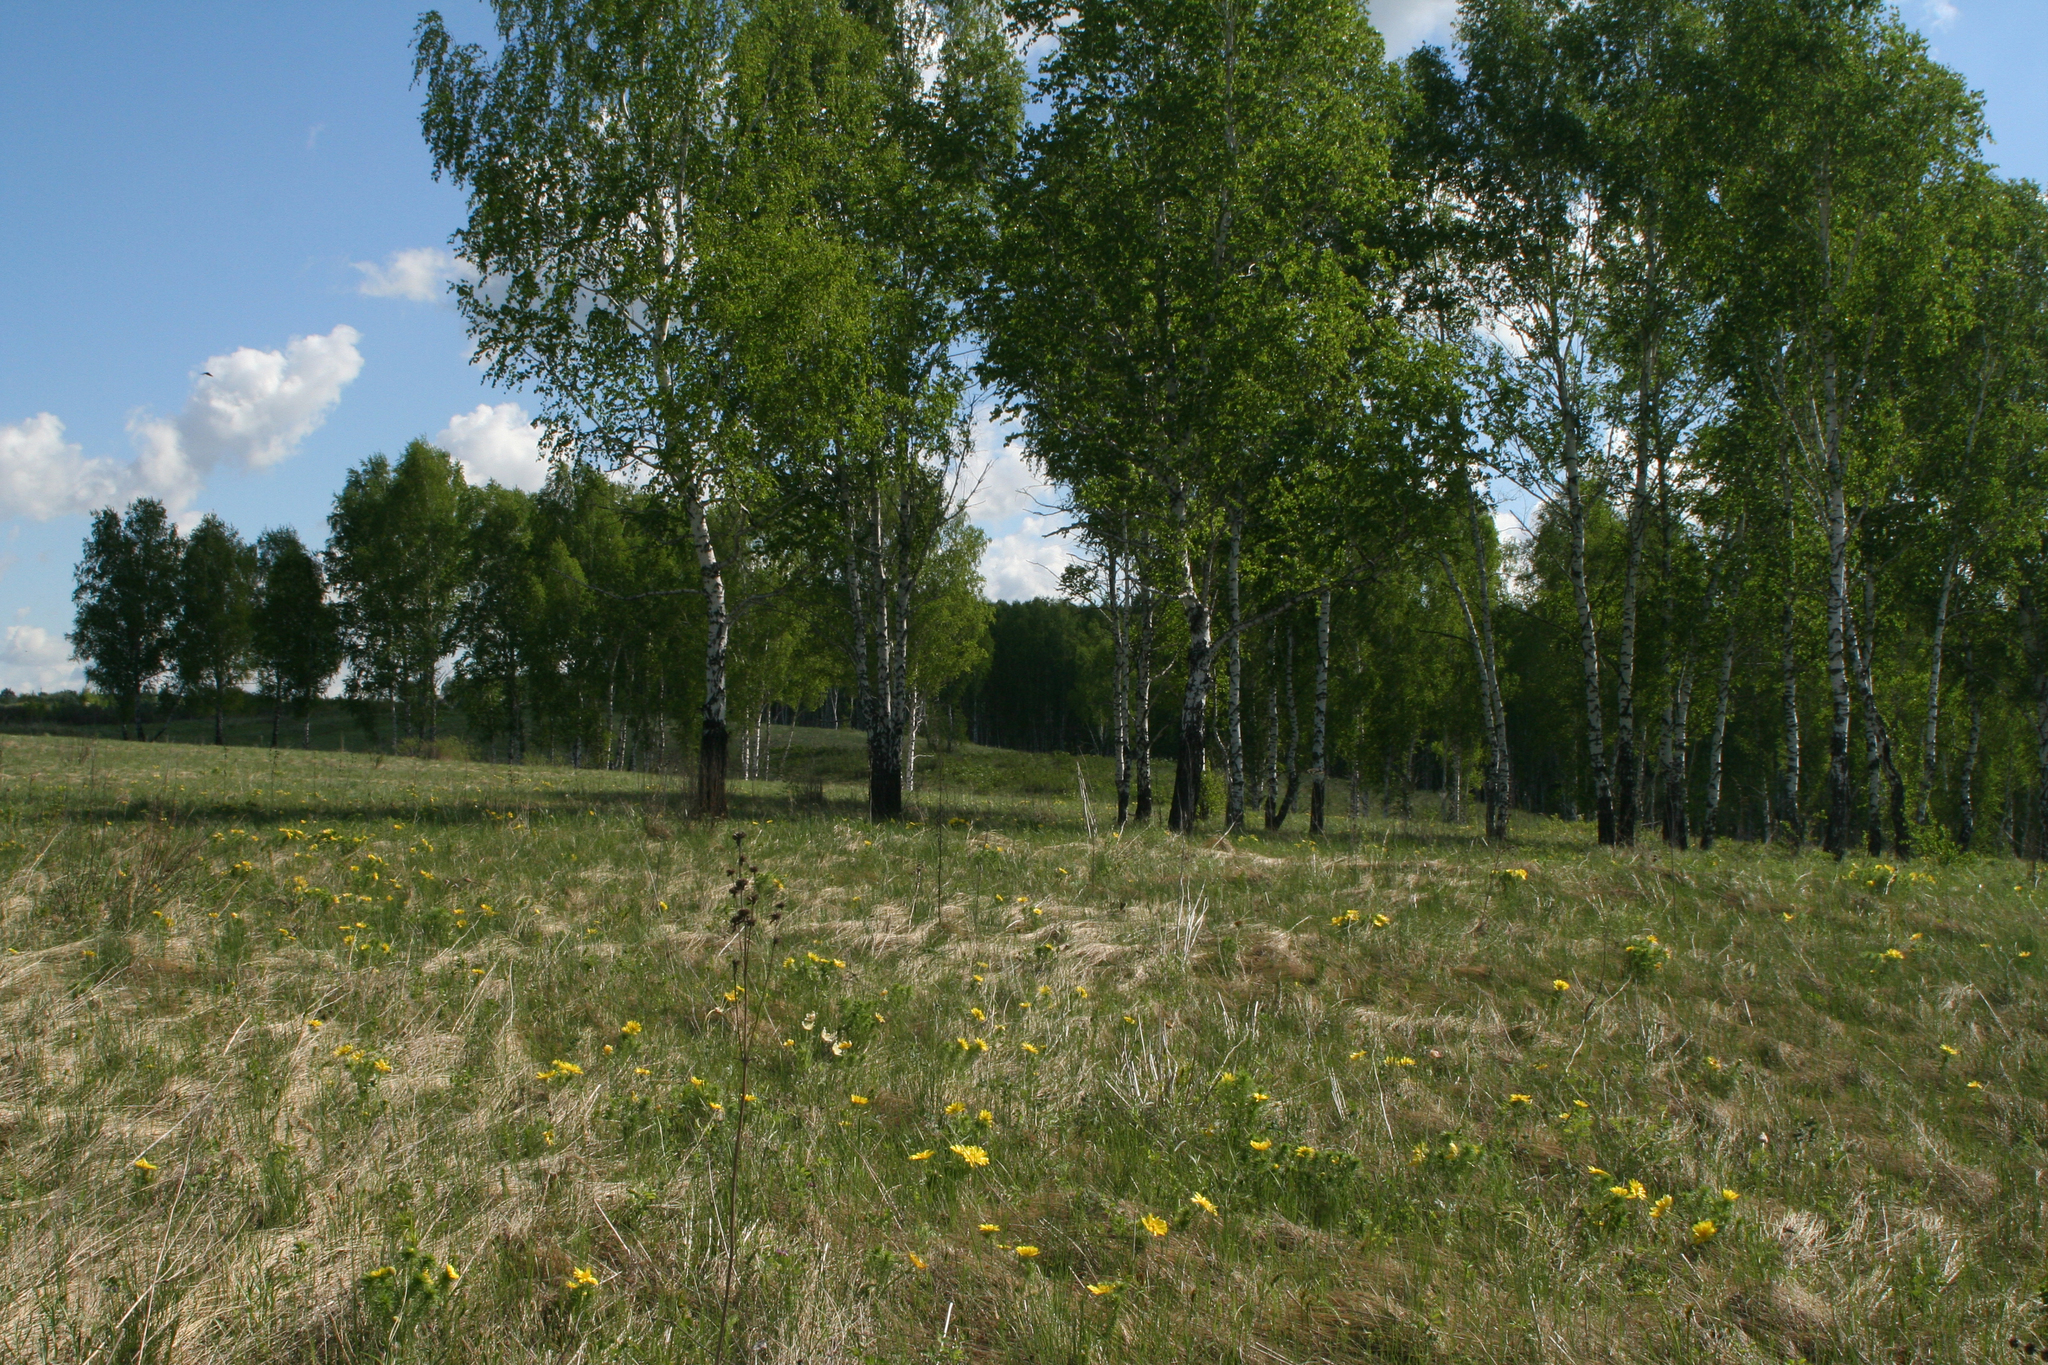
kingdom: Plantae
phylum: Tracheophyta
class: Magnoliopsida
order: Ranunculales
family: Ranunculaceae
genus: Adonis
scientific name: Adonis vernalis
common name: Yellow pheasants-eye
